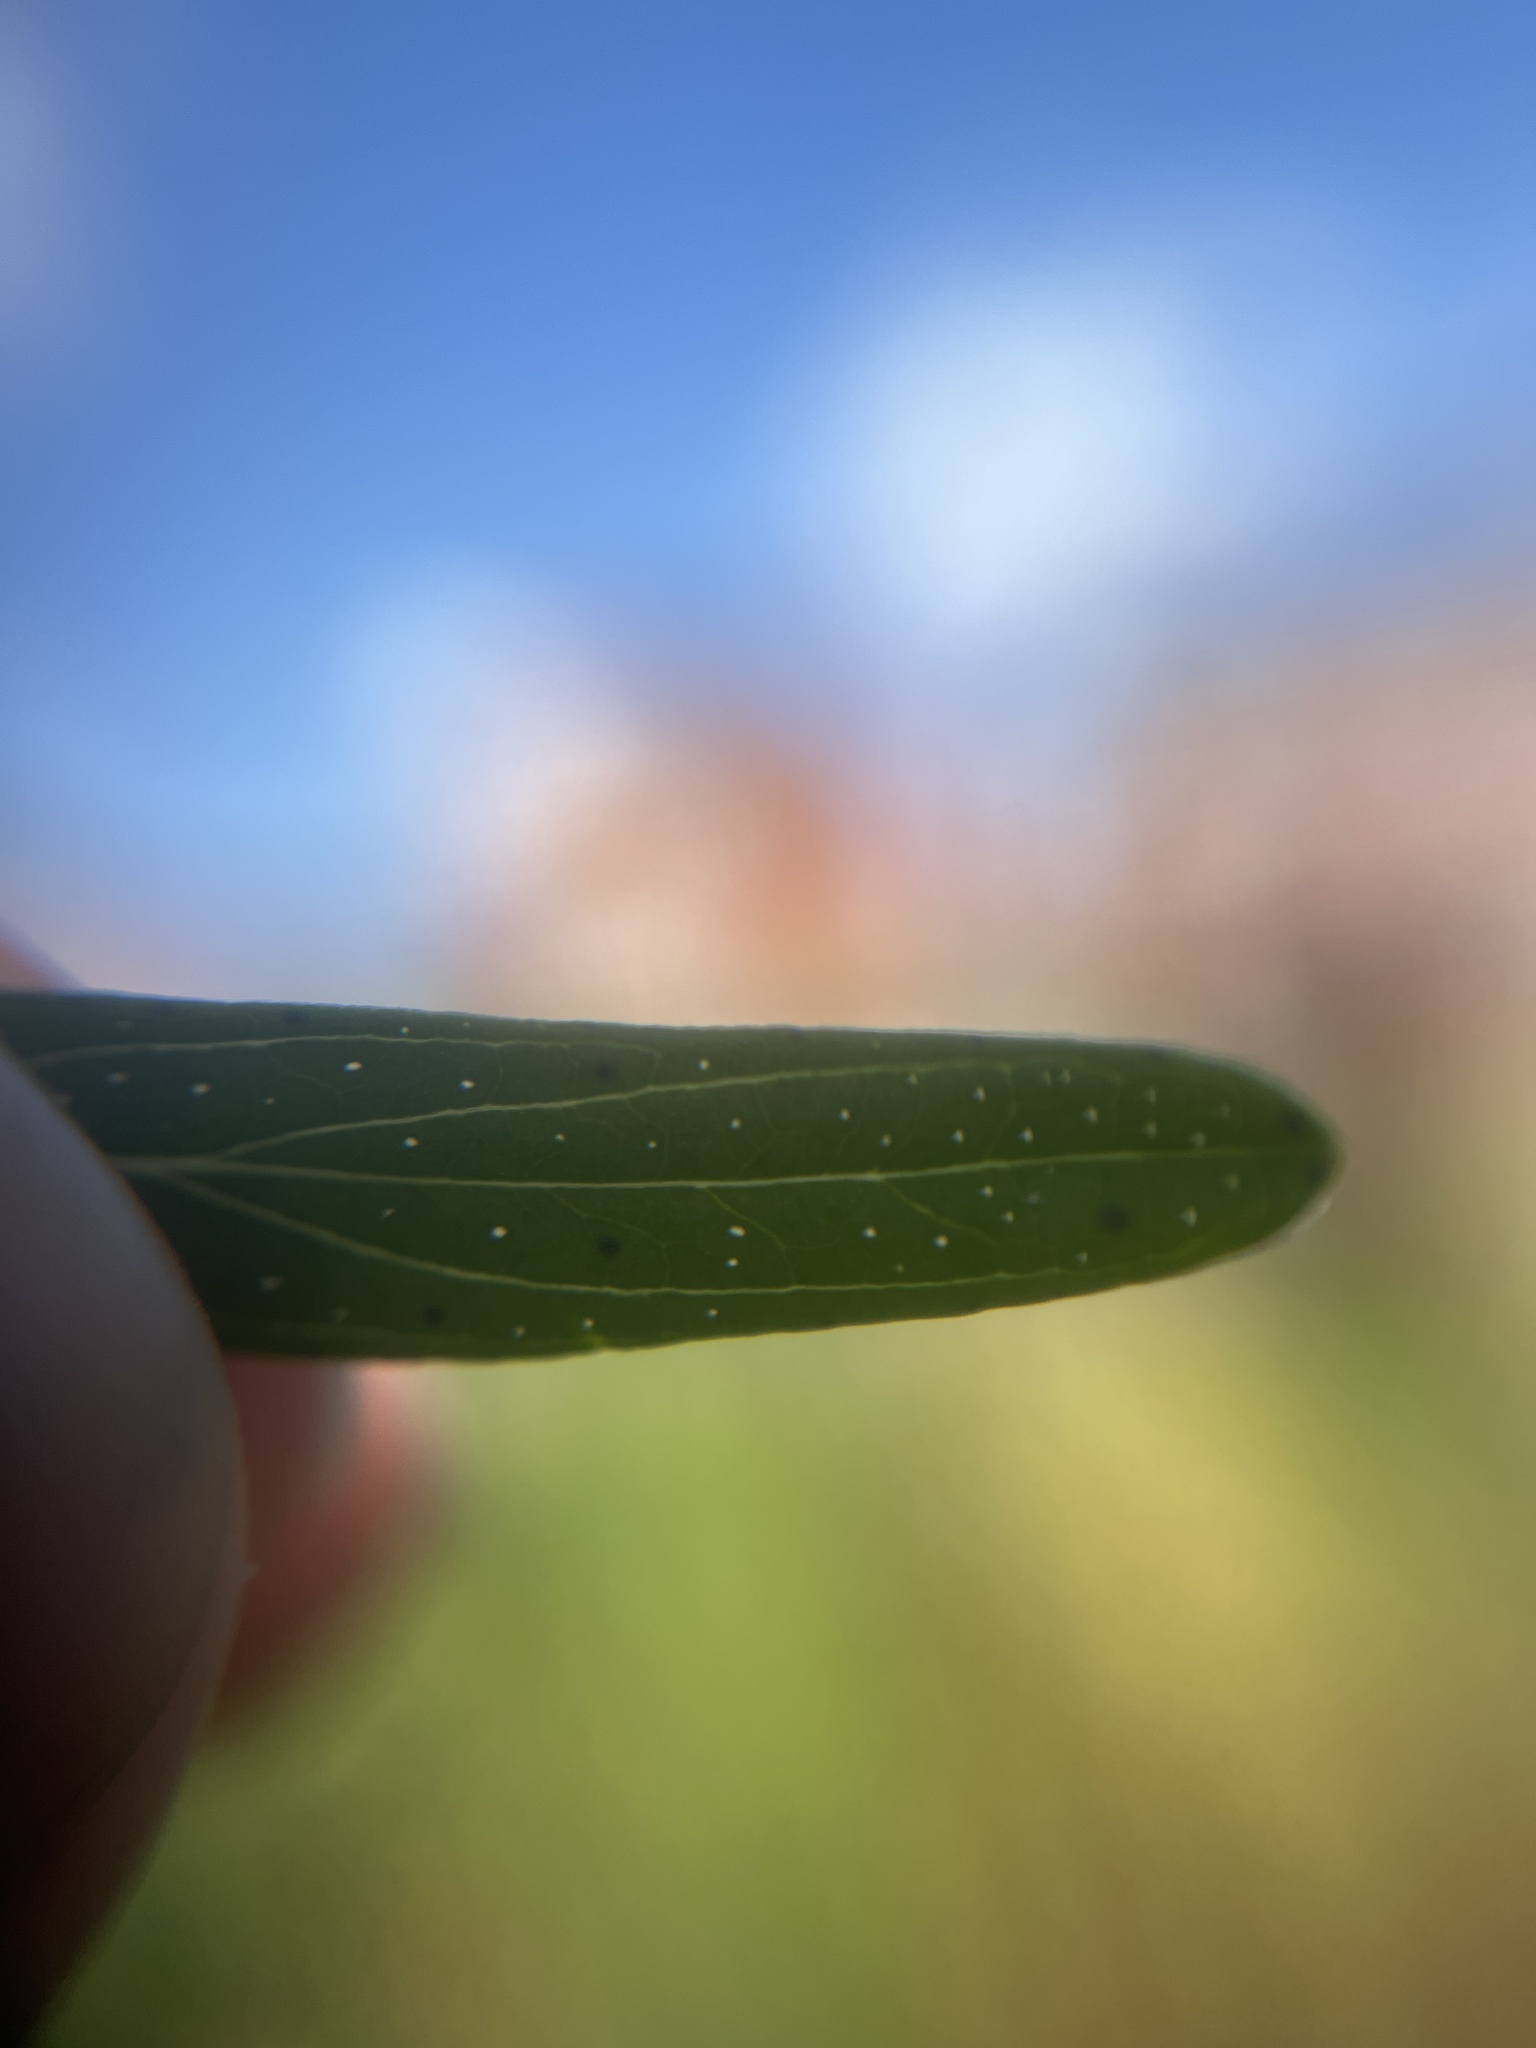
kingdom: Plantae
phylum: Tracheophyta
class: Magnoliopsida
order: Malpighiales
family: Hypericaceae
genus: Hypericum
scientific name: Hypericum perforatum
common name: Common st. johnswort
